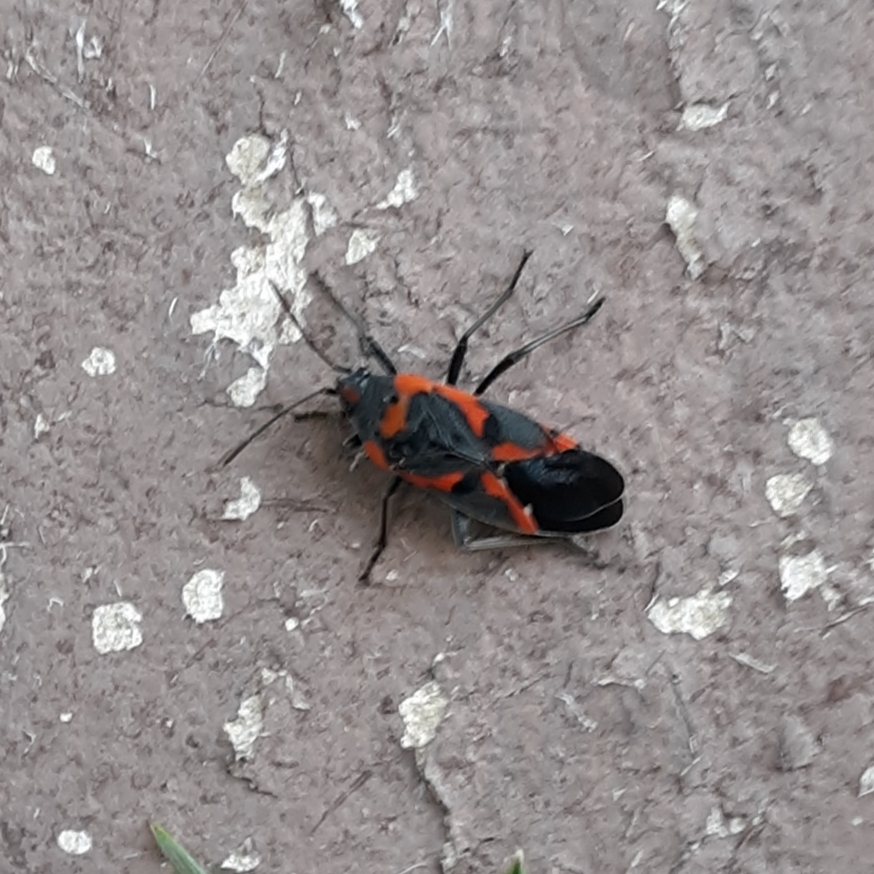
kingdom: Animalia
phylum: Arthropoda
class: Insecta
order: Hemiptera
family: Lygaeidae
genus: Lygaeus
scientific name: Lygaeus kalmii
